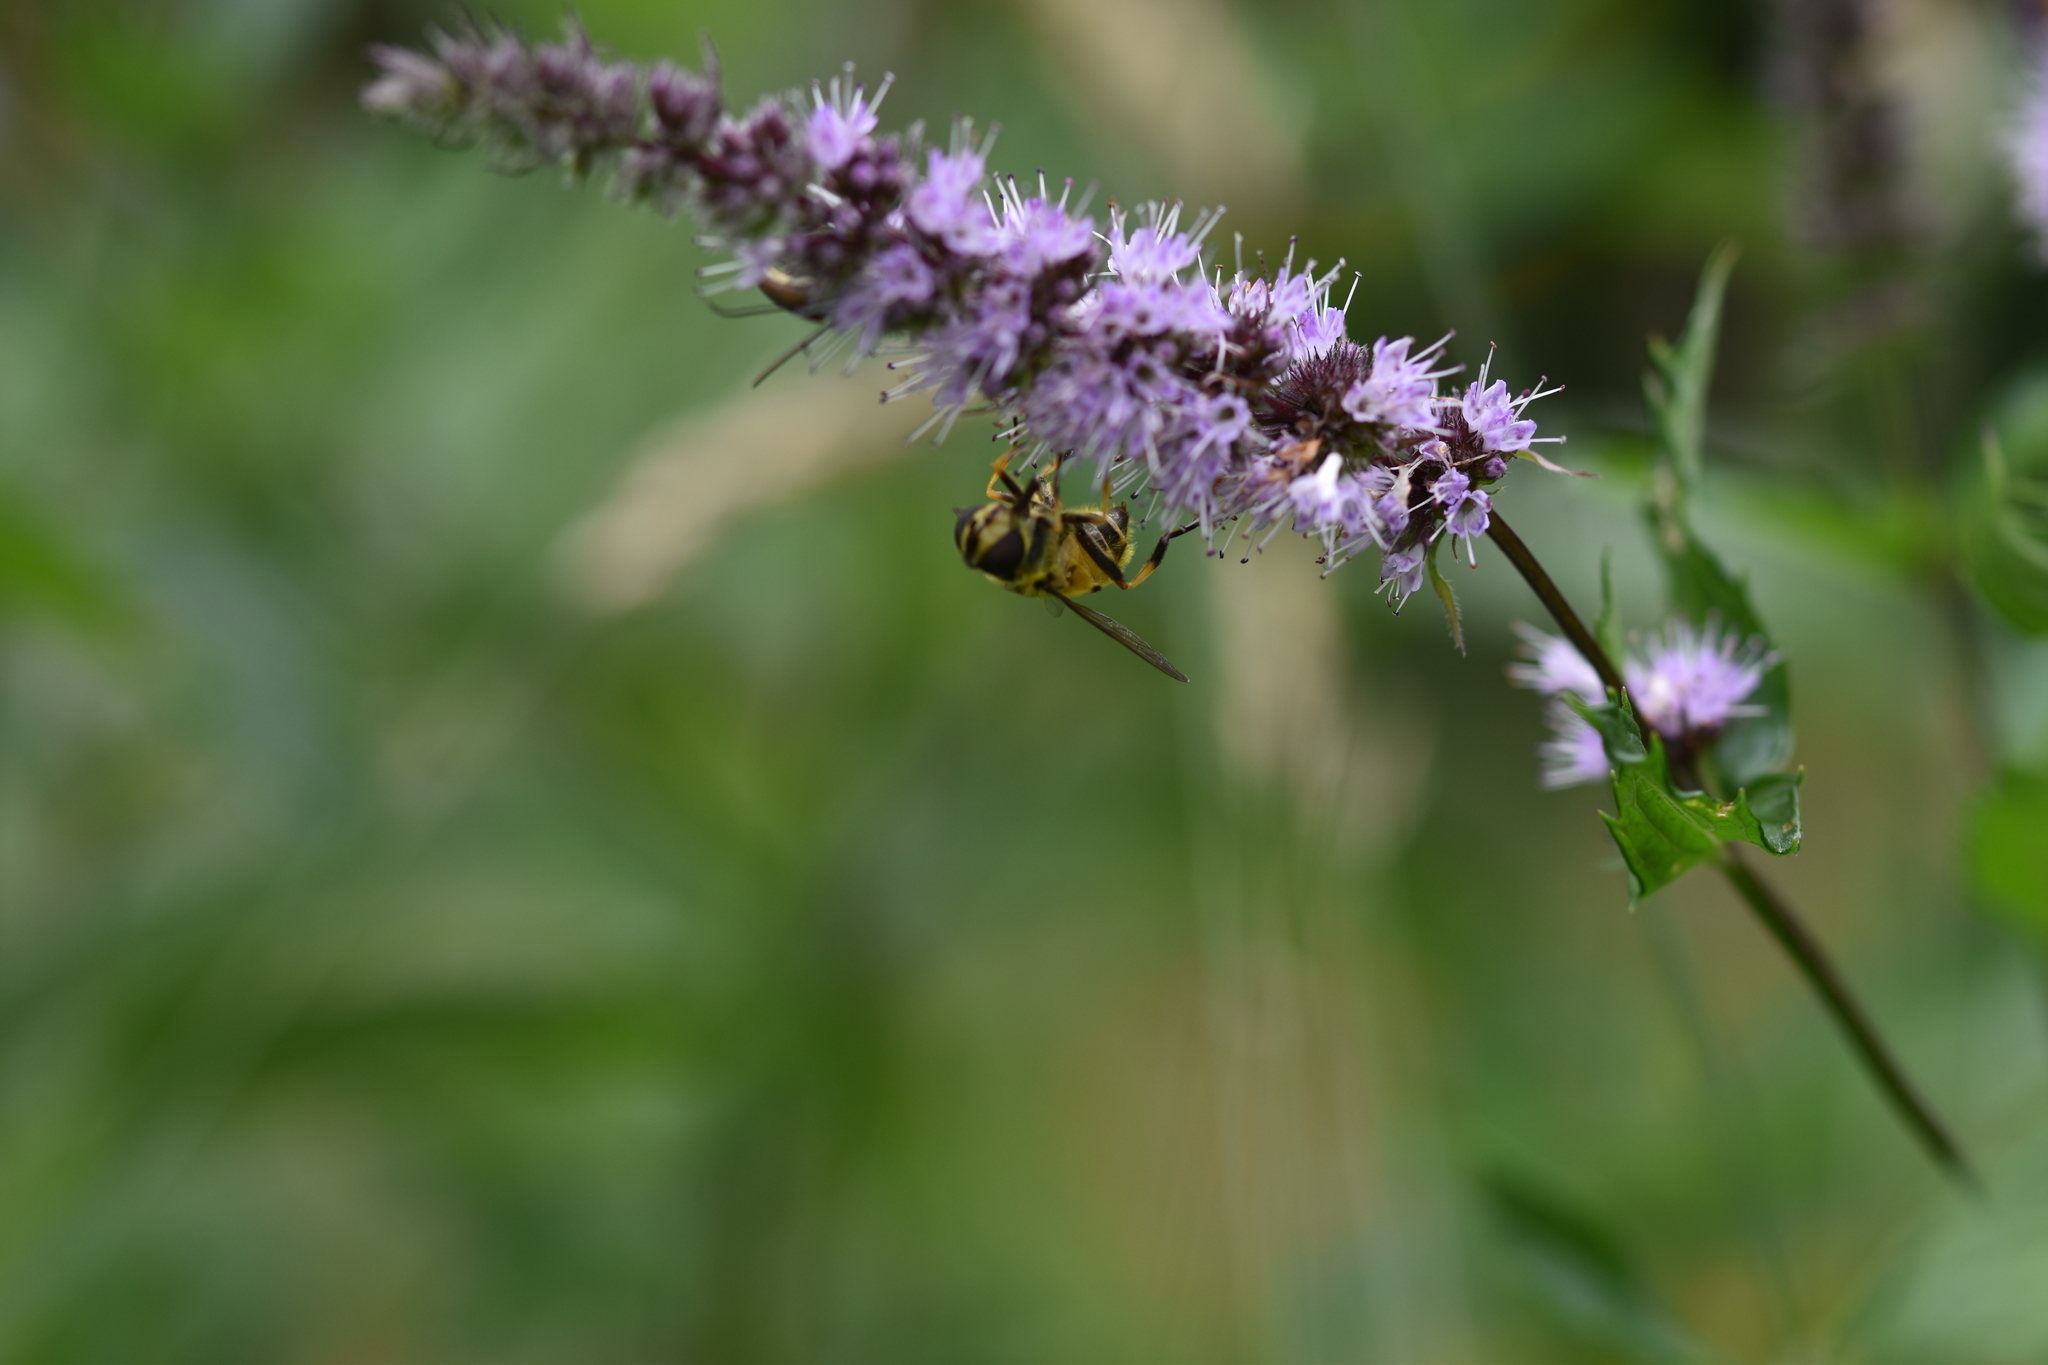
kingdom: Animalia
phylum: Arthropoda
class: Insecta
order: Diptera
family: Syrphidae
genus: Myathropa
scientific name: Myathropa florea
